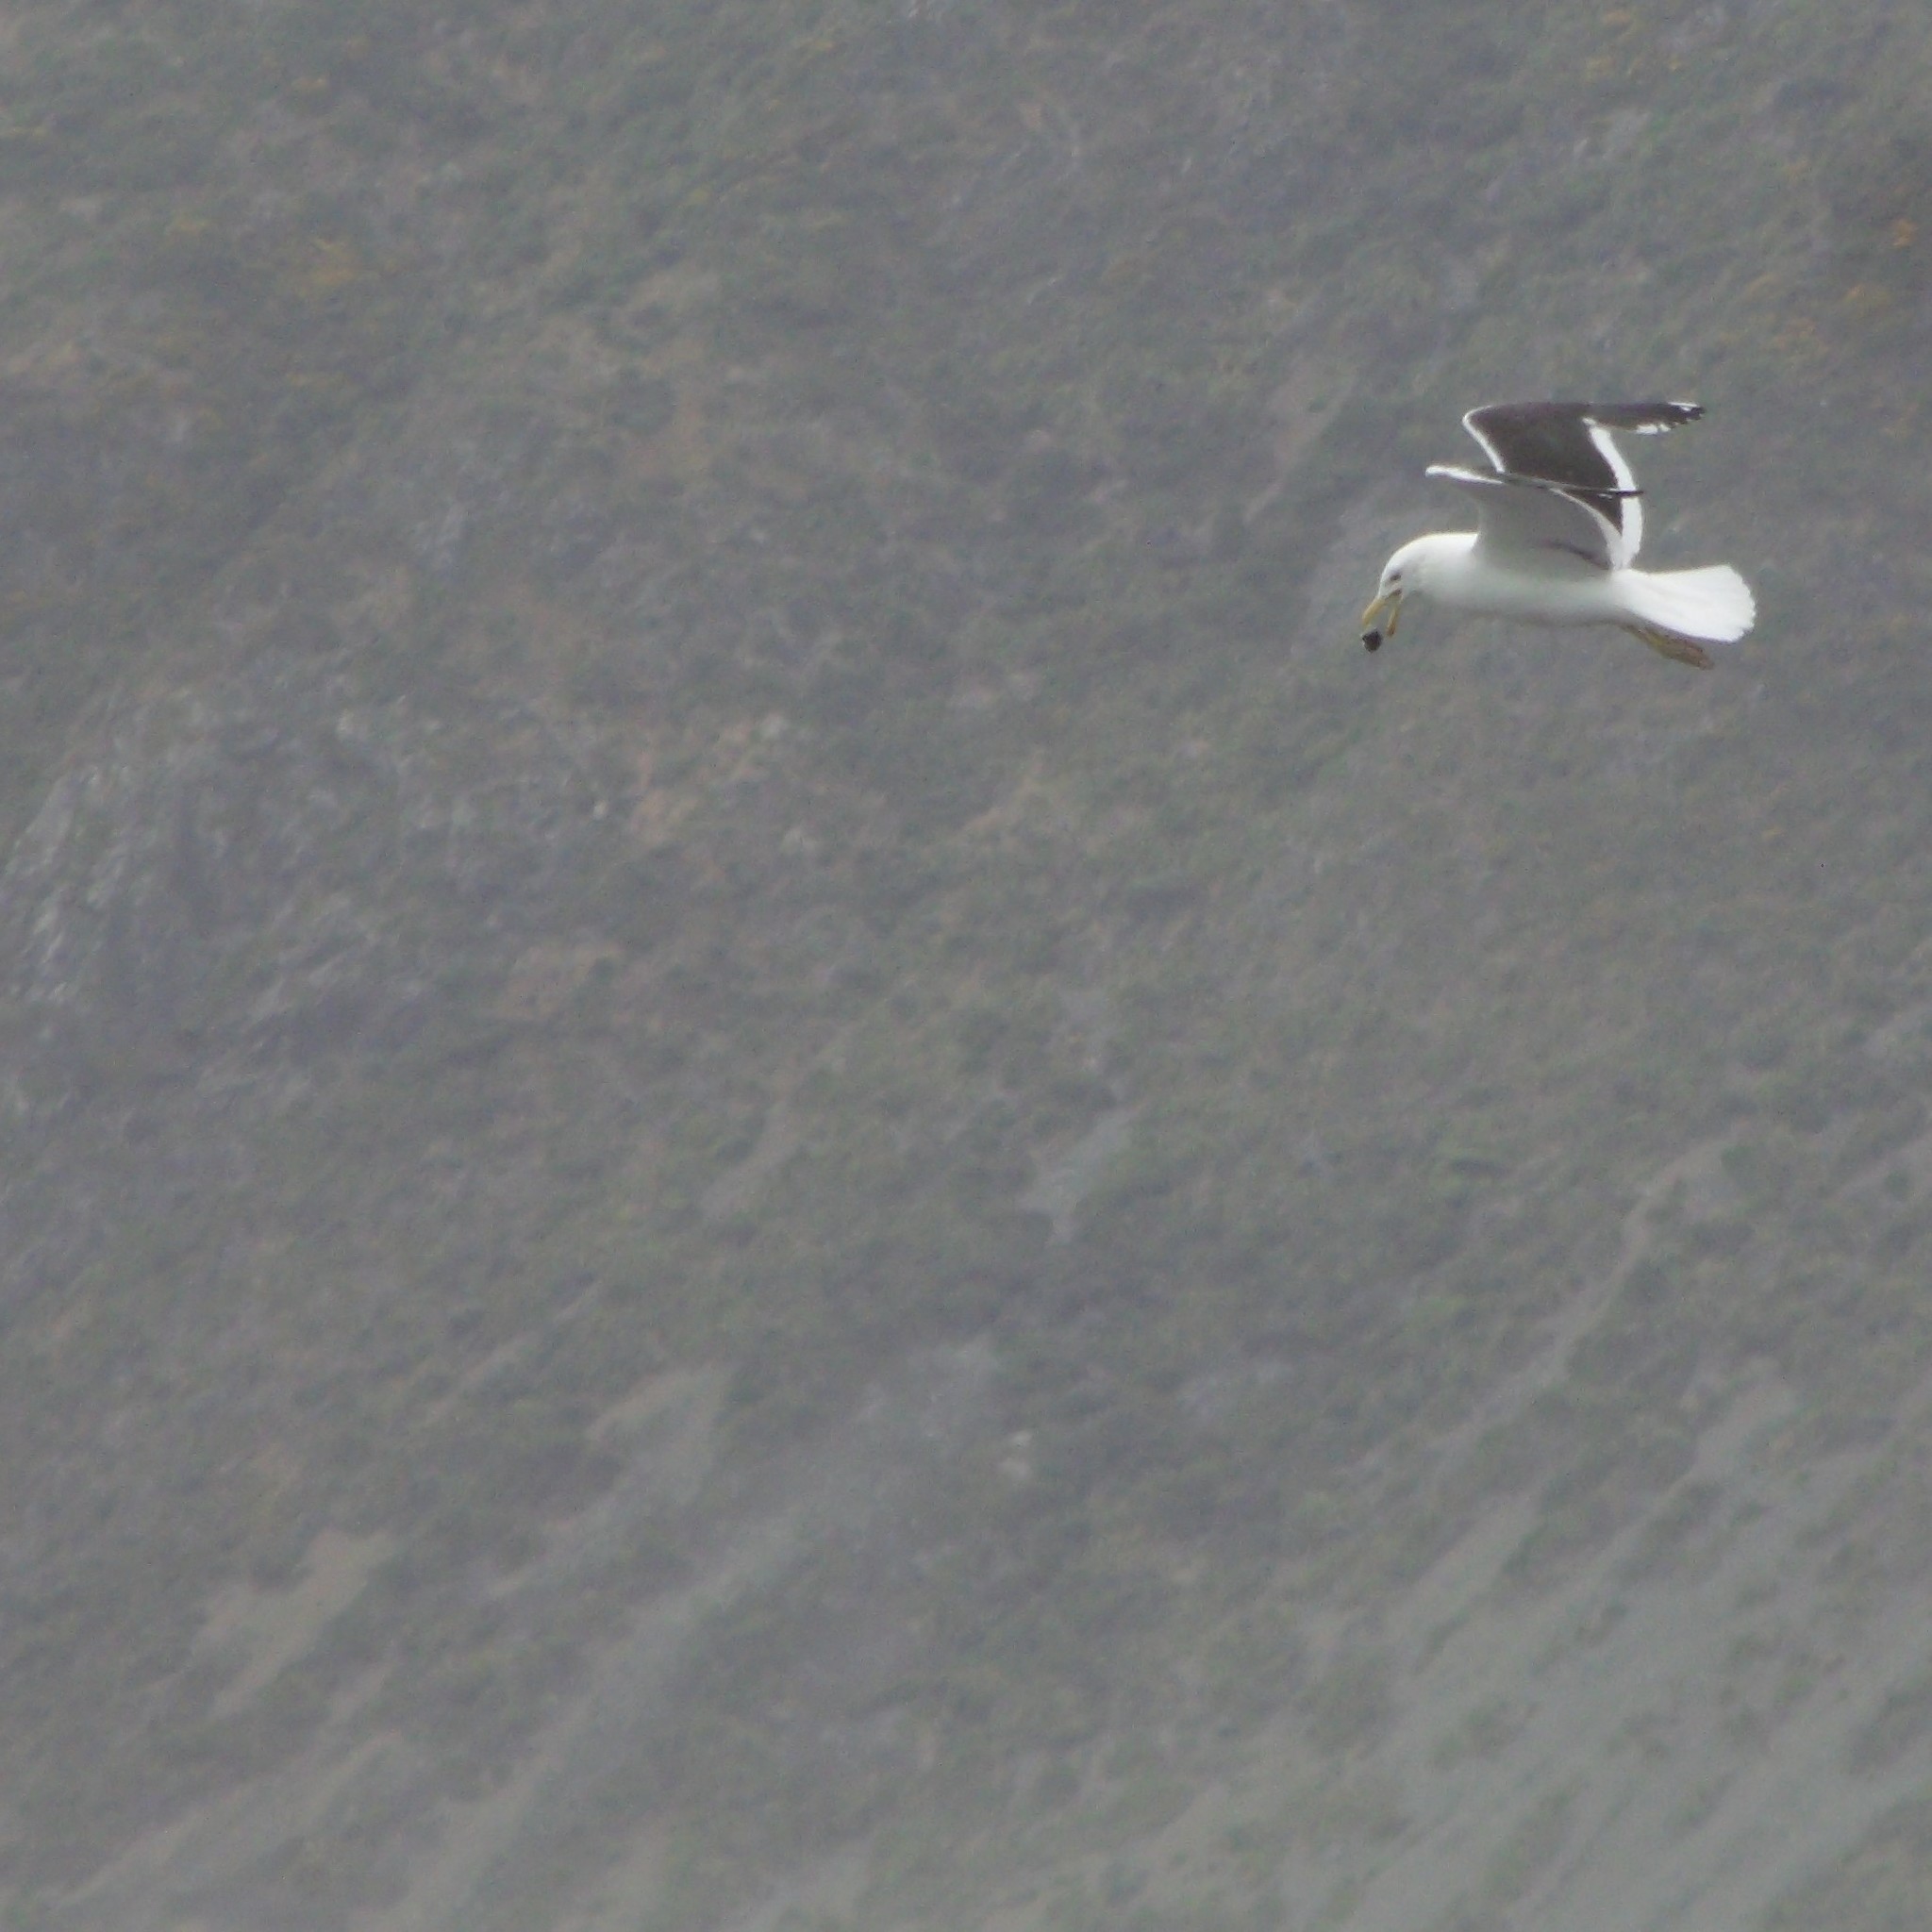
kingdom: Animalia
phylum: Chordata
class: Aves
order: Charadriiformes
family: Laridae
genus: Larus
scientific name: Larus dominicanus
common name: Kelp gull
